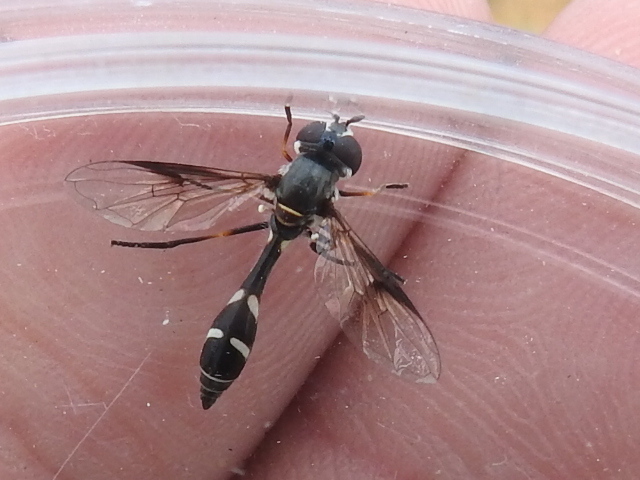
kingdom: Animalia
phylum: Arthropoda
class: Insecta
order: Diptera
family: Syrphidae
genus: Dioprosopa
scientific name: Dioprosopa clavatus
